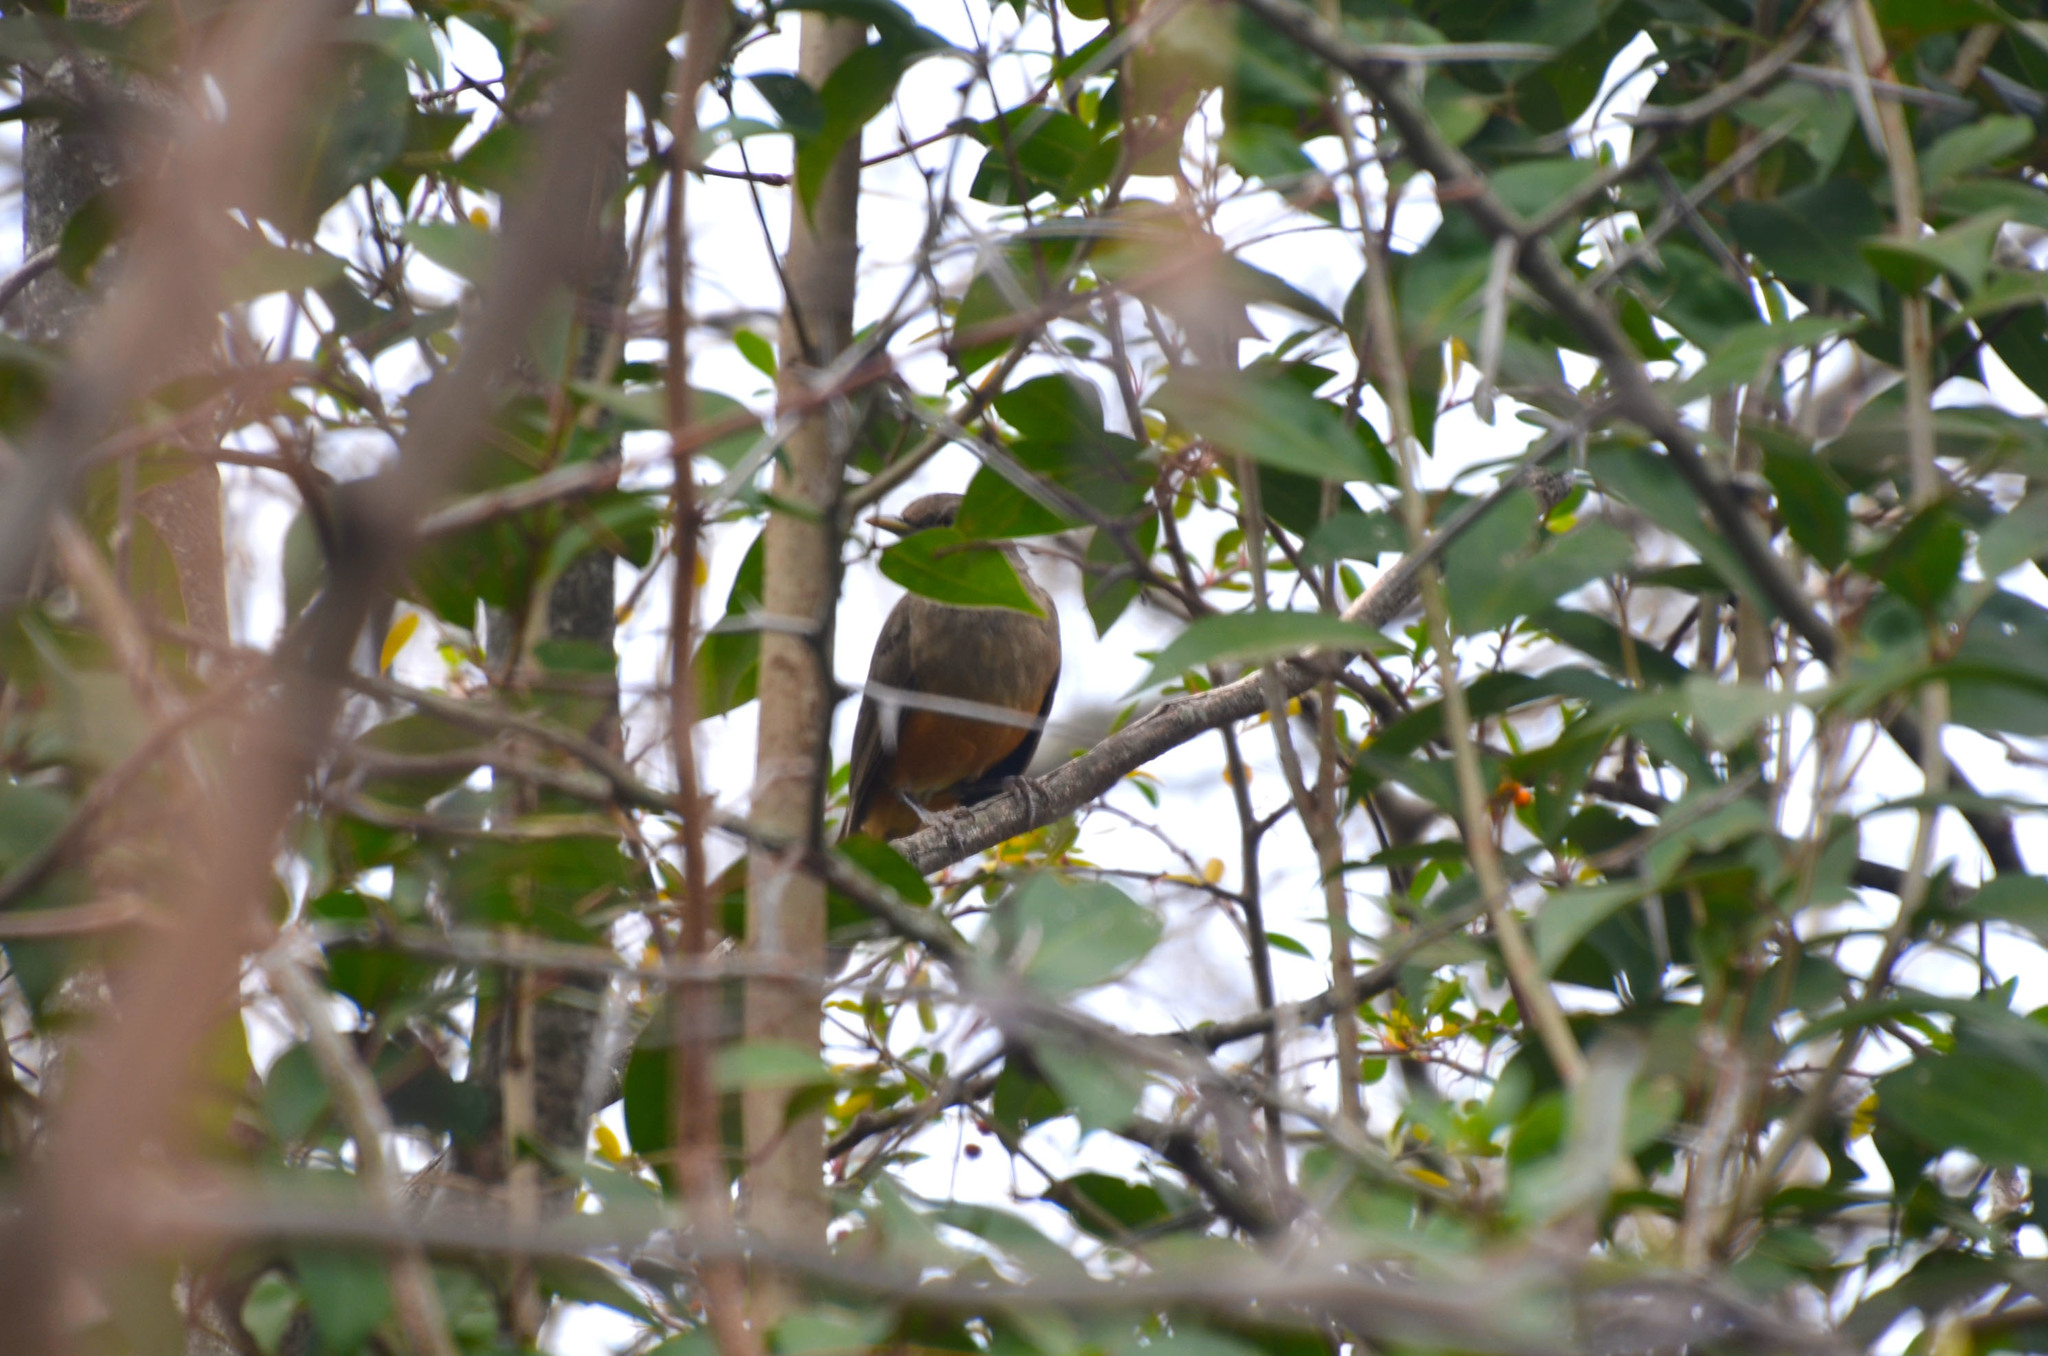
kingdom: Animalia
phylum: Chordata
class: Aves
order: Passeriformes
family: Turdidae
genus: Turdus
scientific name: Turdus rufiventris
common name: Rufous-bellied thrush
